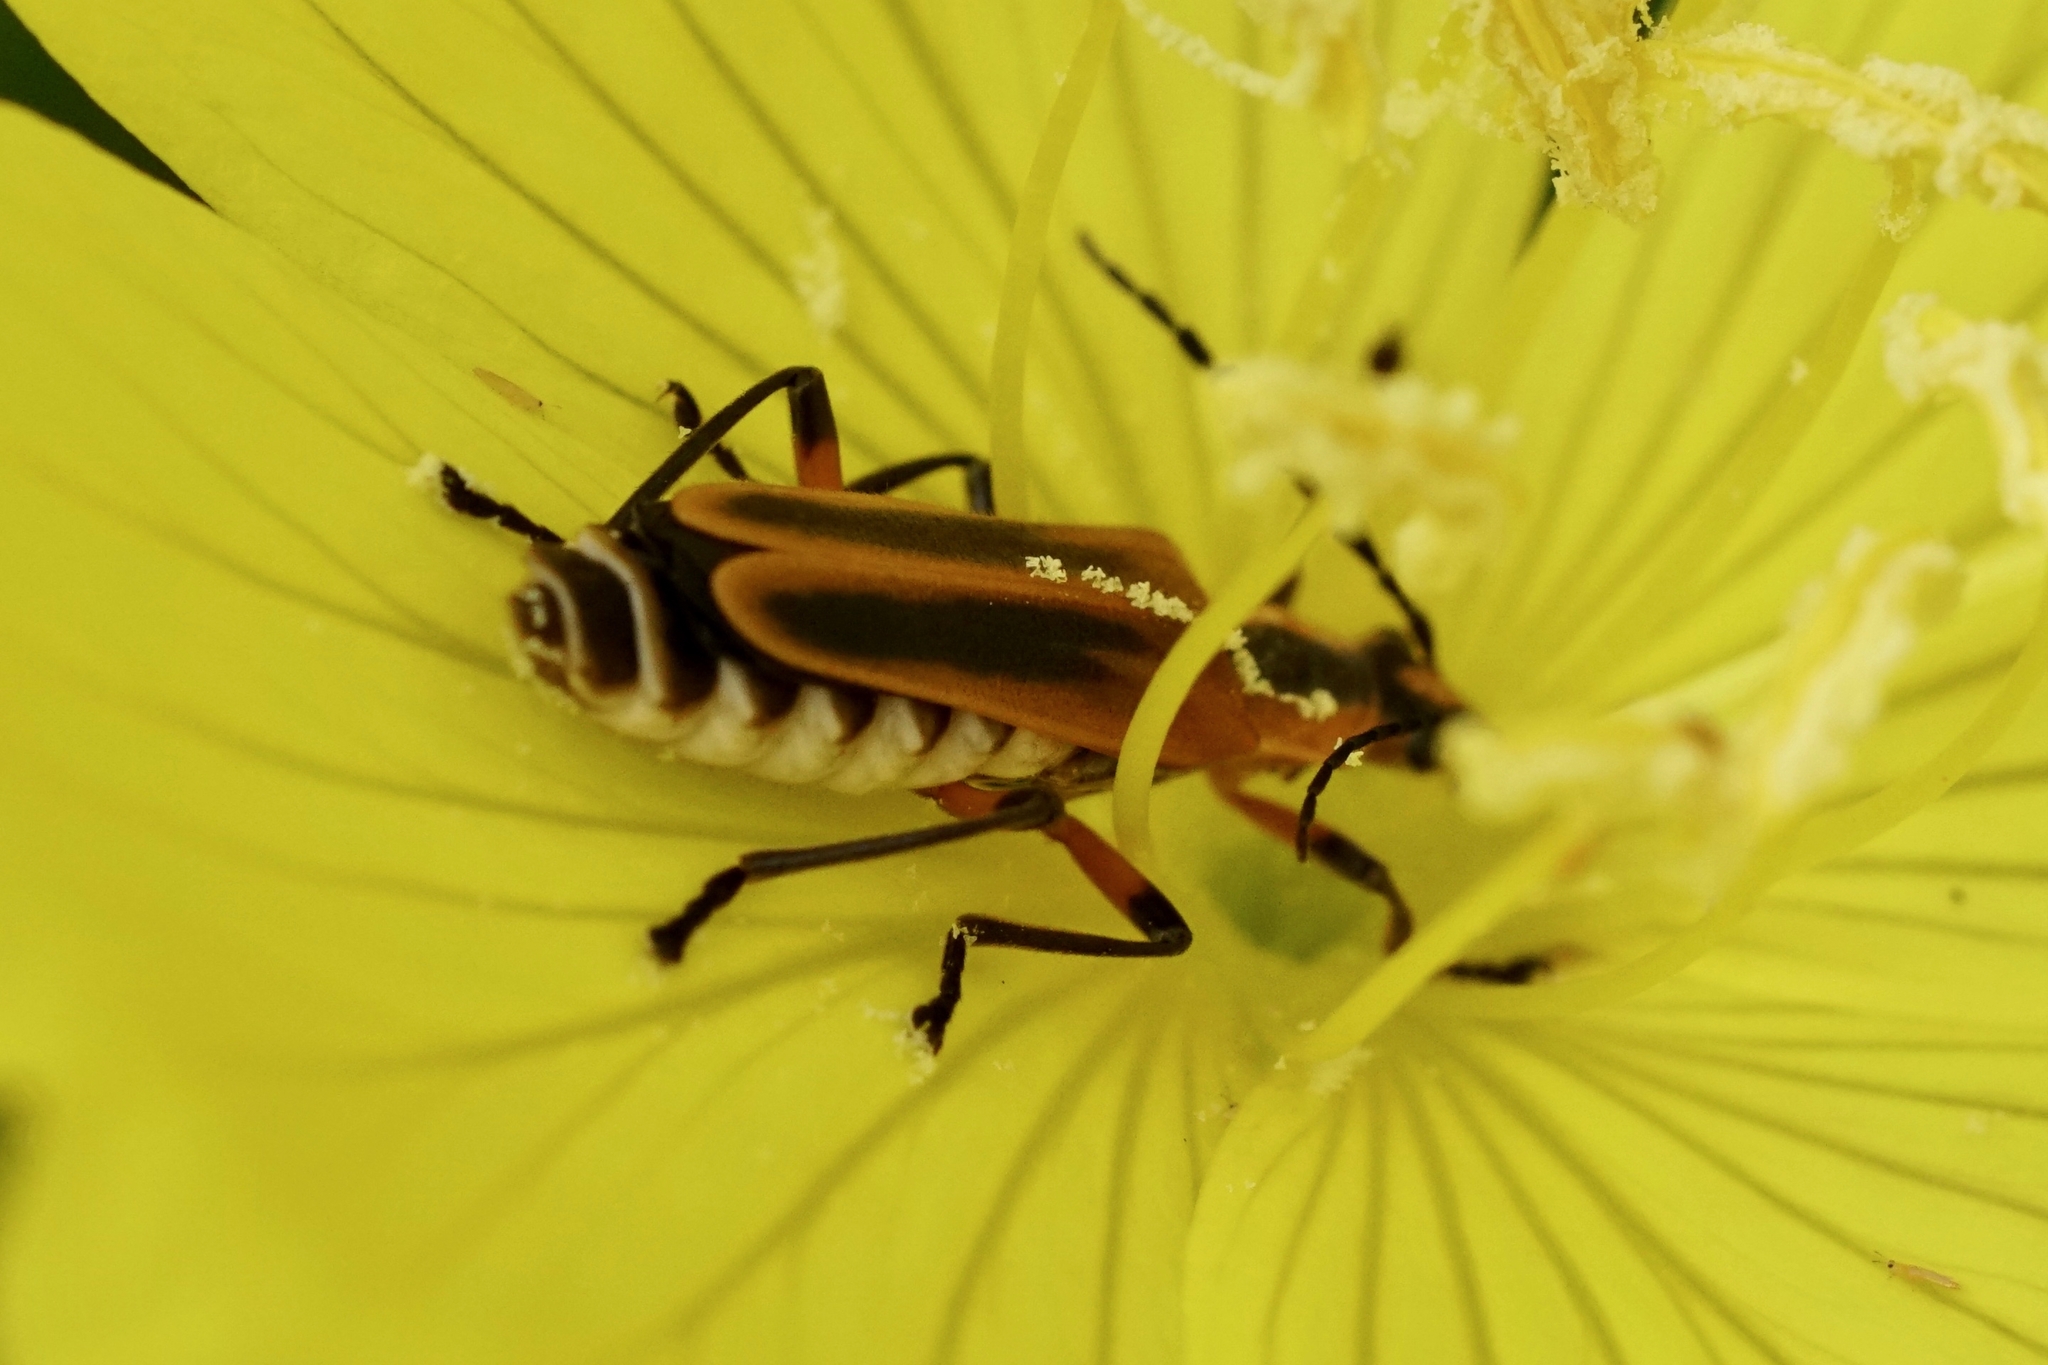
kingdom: Animalia
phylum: Arthropoda
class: Insecta
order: Coleoptera
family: Cantharidae
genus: Chauliognathus
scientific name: Chauliognathus marginatus
